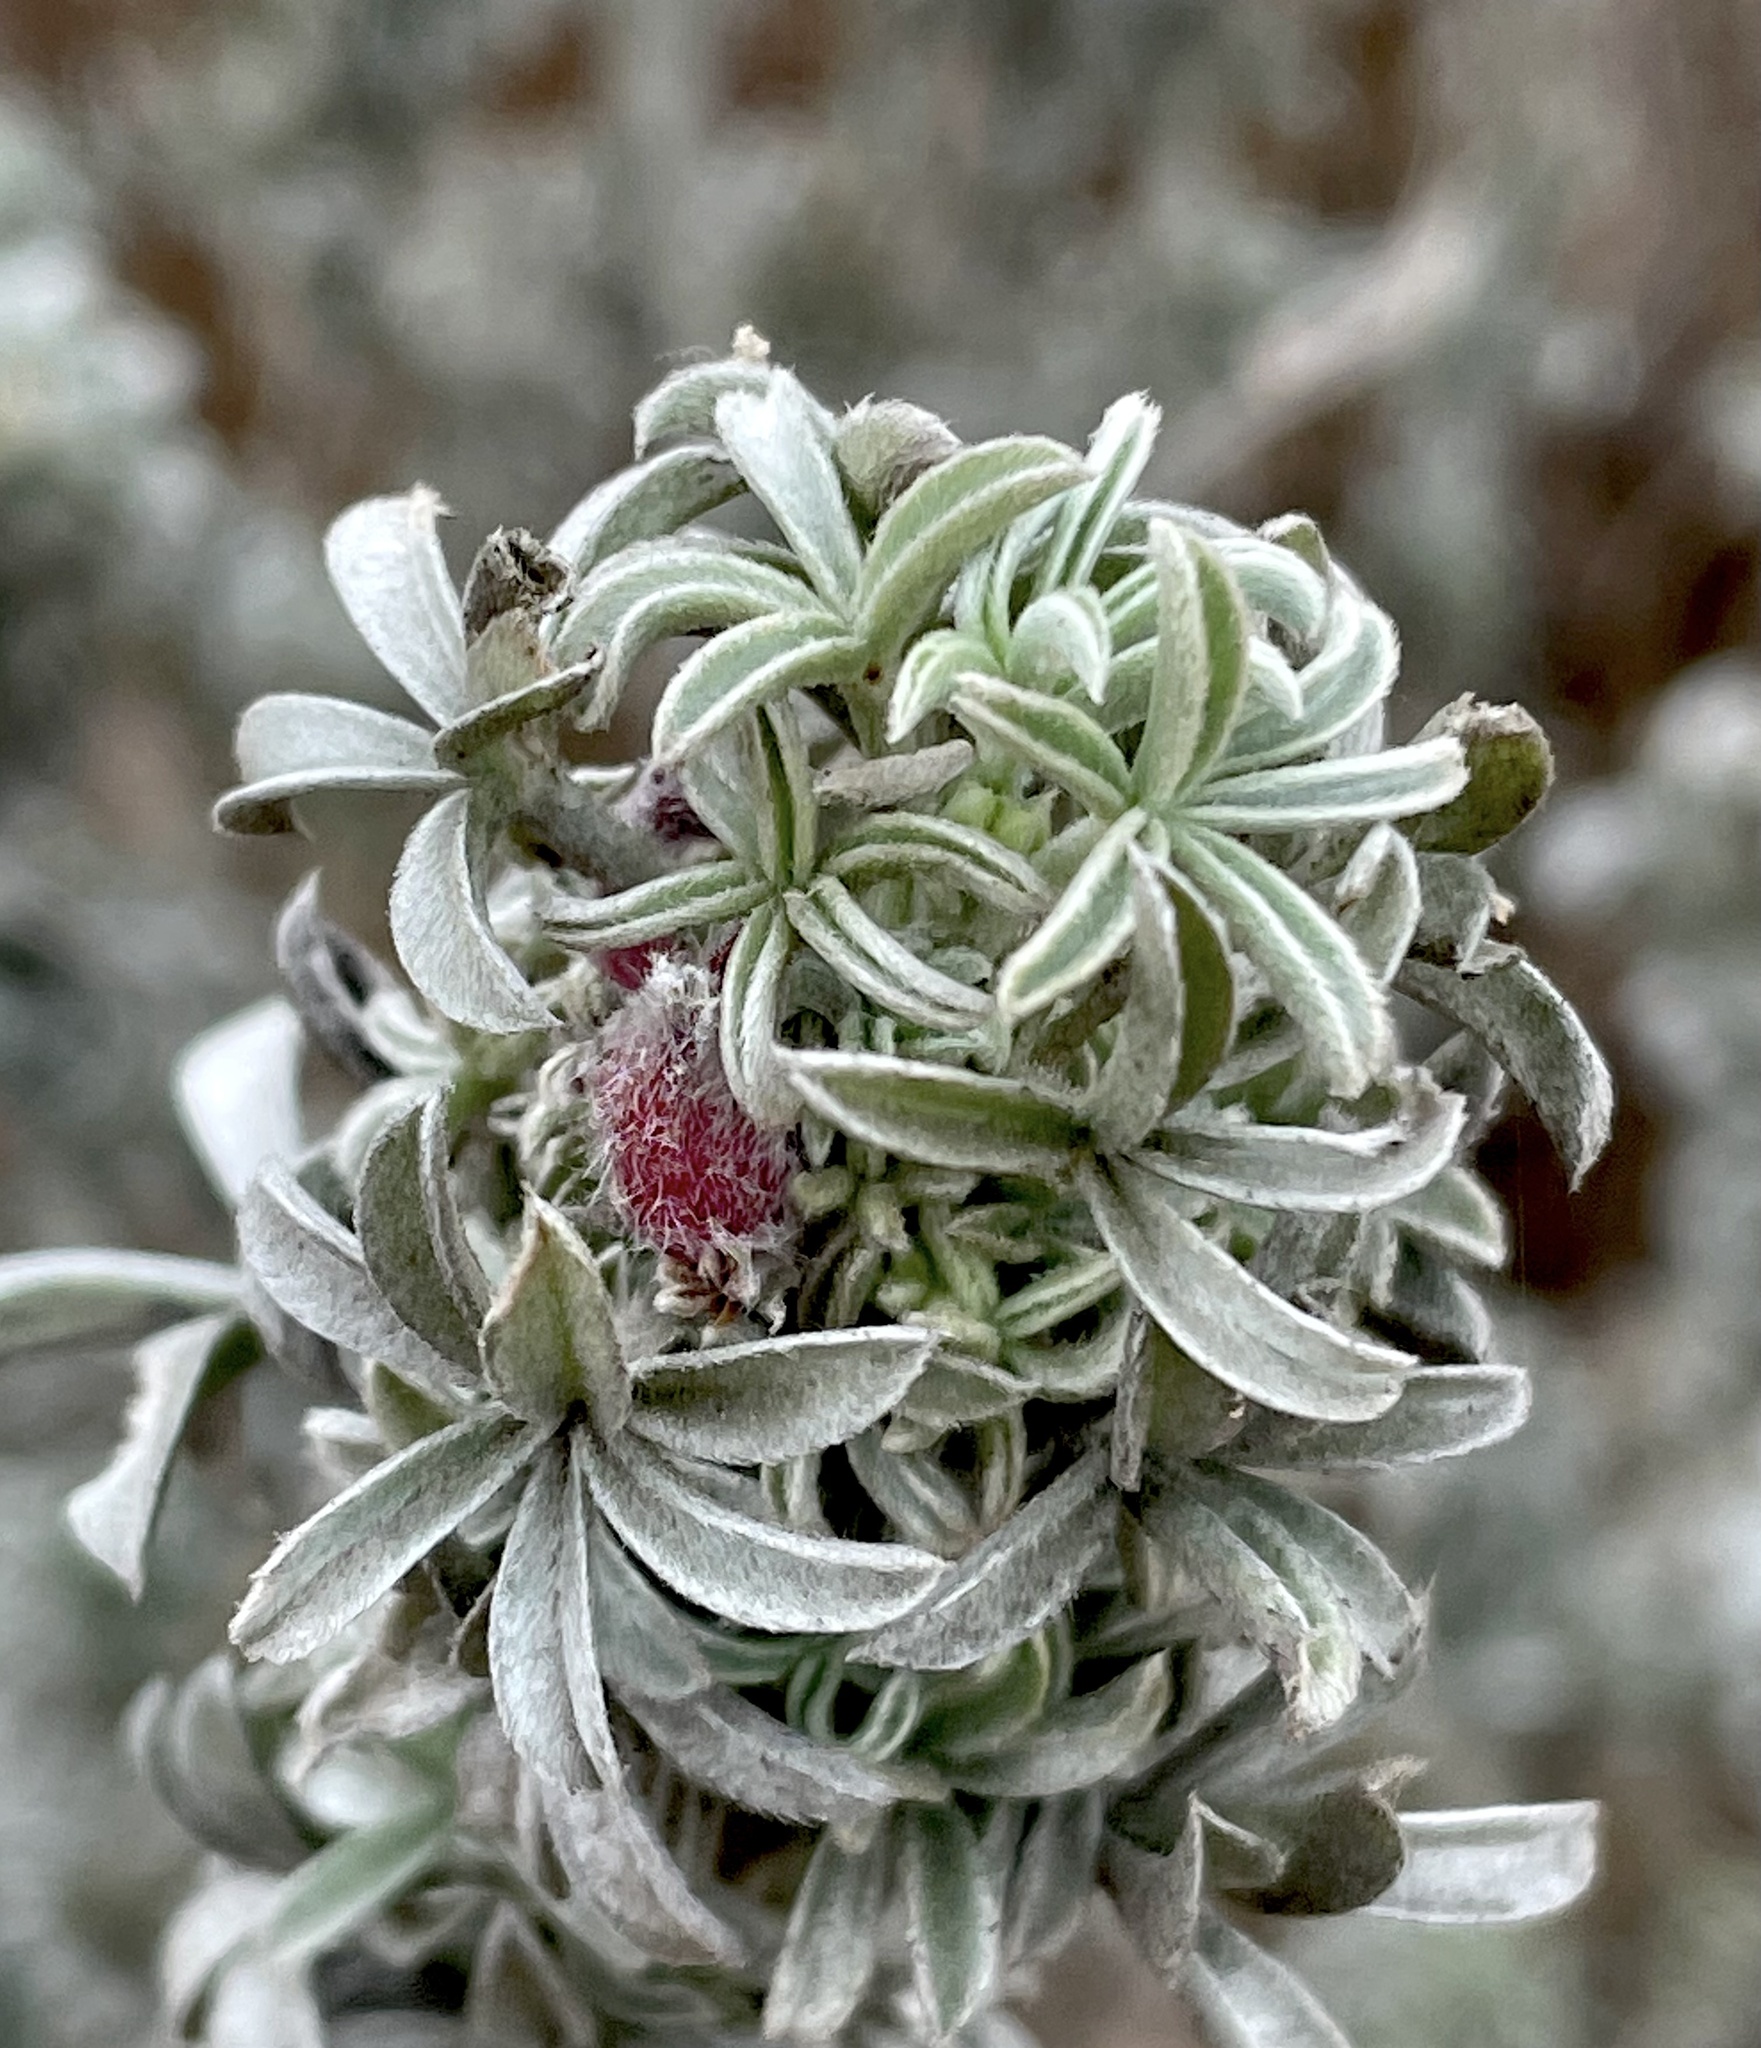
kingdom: Animalia
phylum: Arthropoda
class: Insecta
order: Diptera
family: Cecidomyiidae
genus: Dasineura
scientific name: Dasineura lupini
